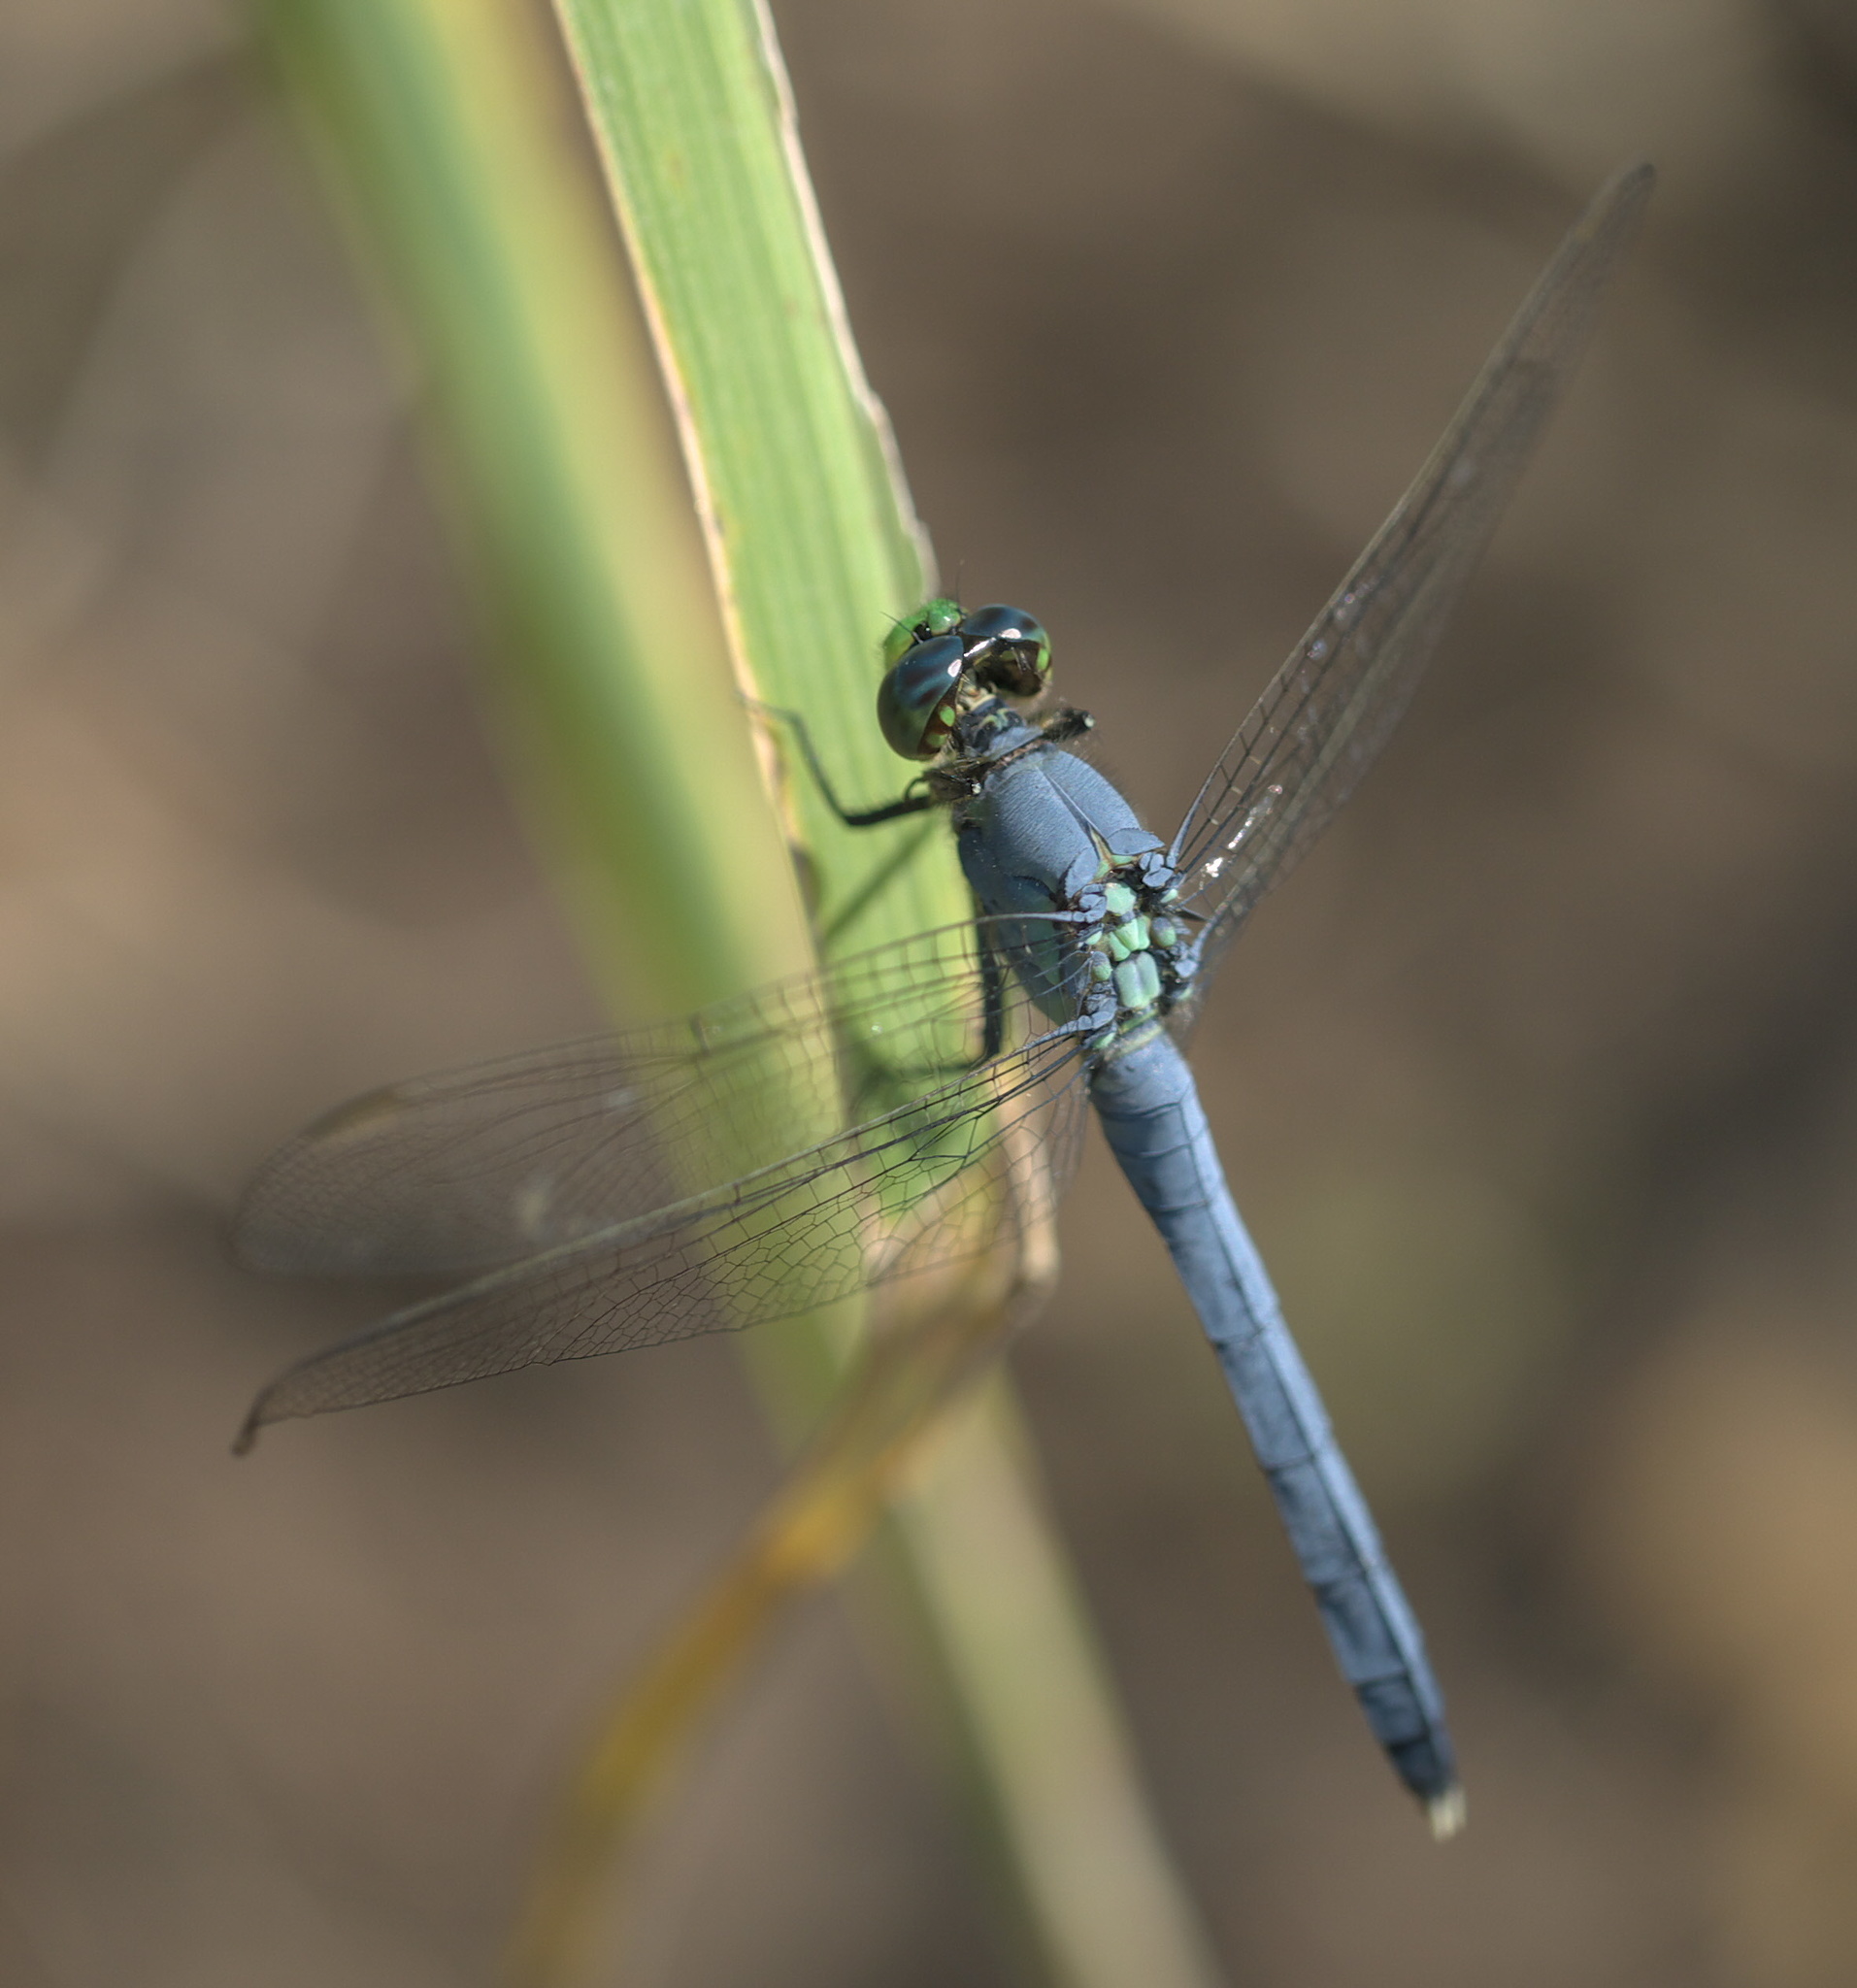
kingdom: Animalia
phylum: Arthropoda
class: Insecta
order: Odonata
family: Libellulidae
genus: Erythemis
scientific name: Erythemis simplicicollis
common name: Eastern pondhawk
